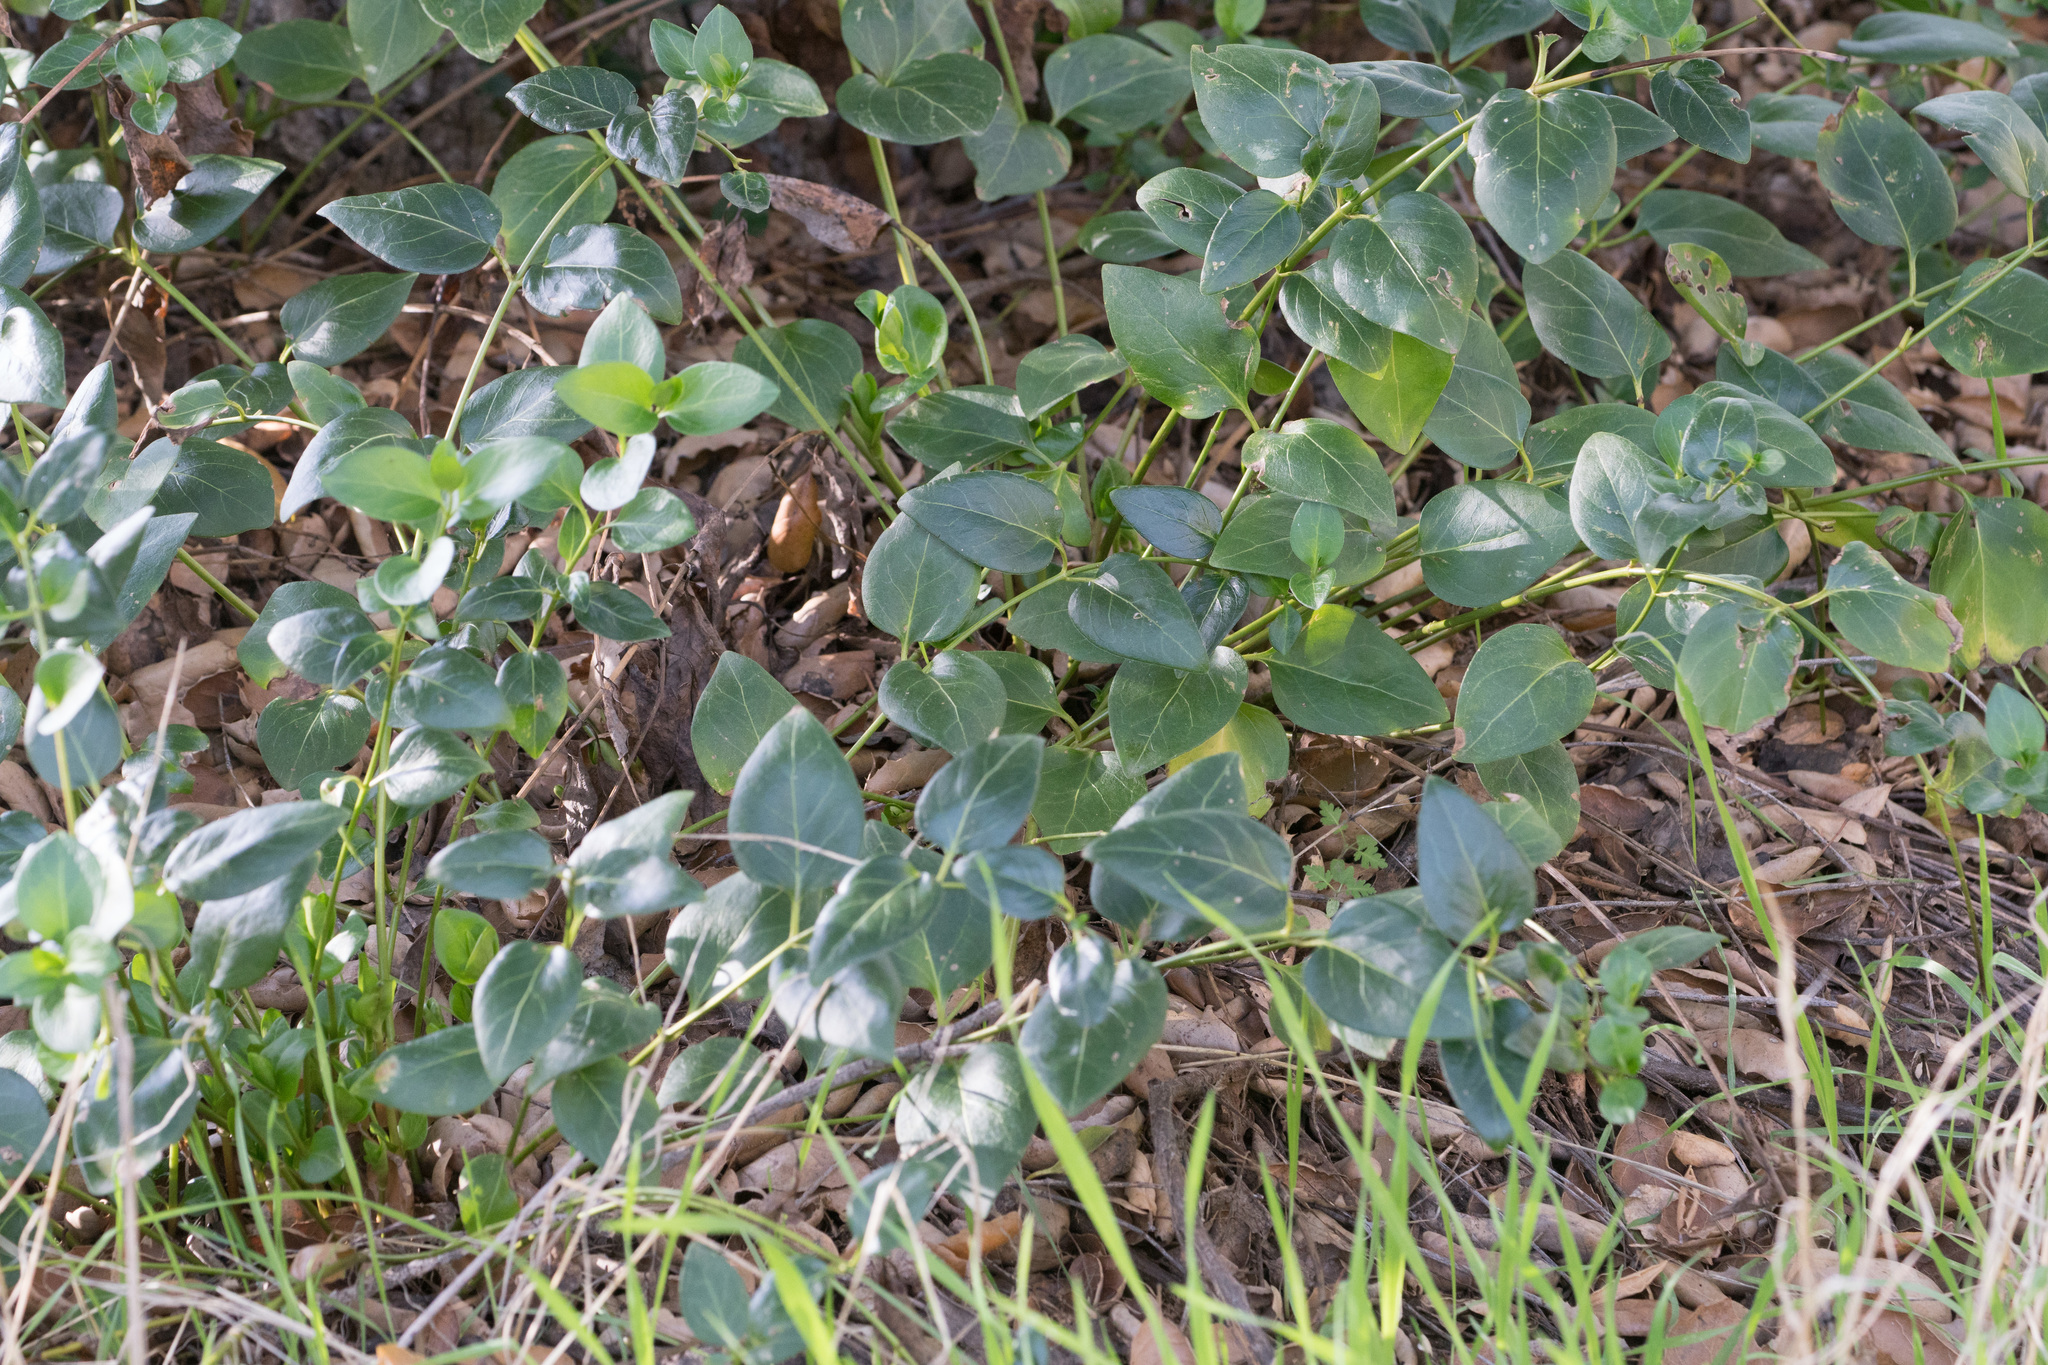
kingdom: Plantae
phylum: Tracheophyta
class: Magnoliopsida
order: Gentianales
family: Apocynaceae
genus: Vinca
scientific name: Vinca major
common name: Greater periwinkle
